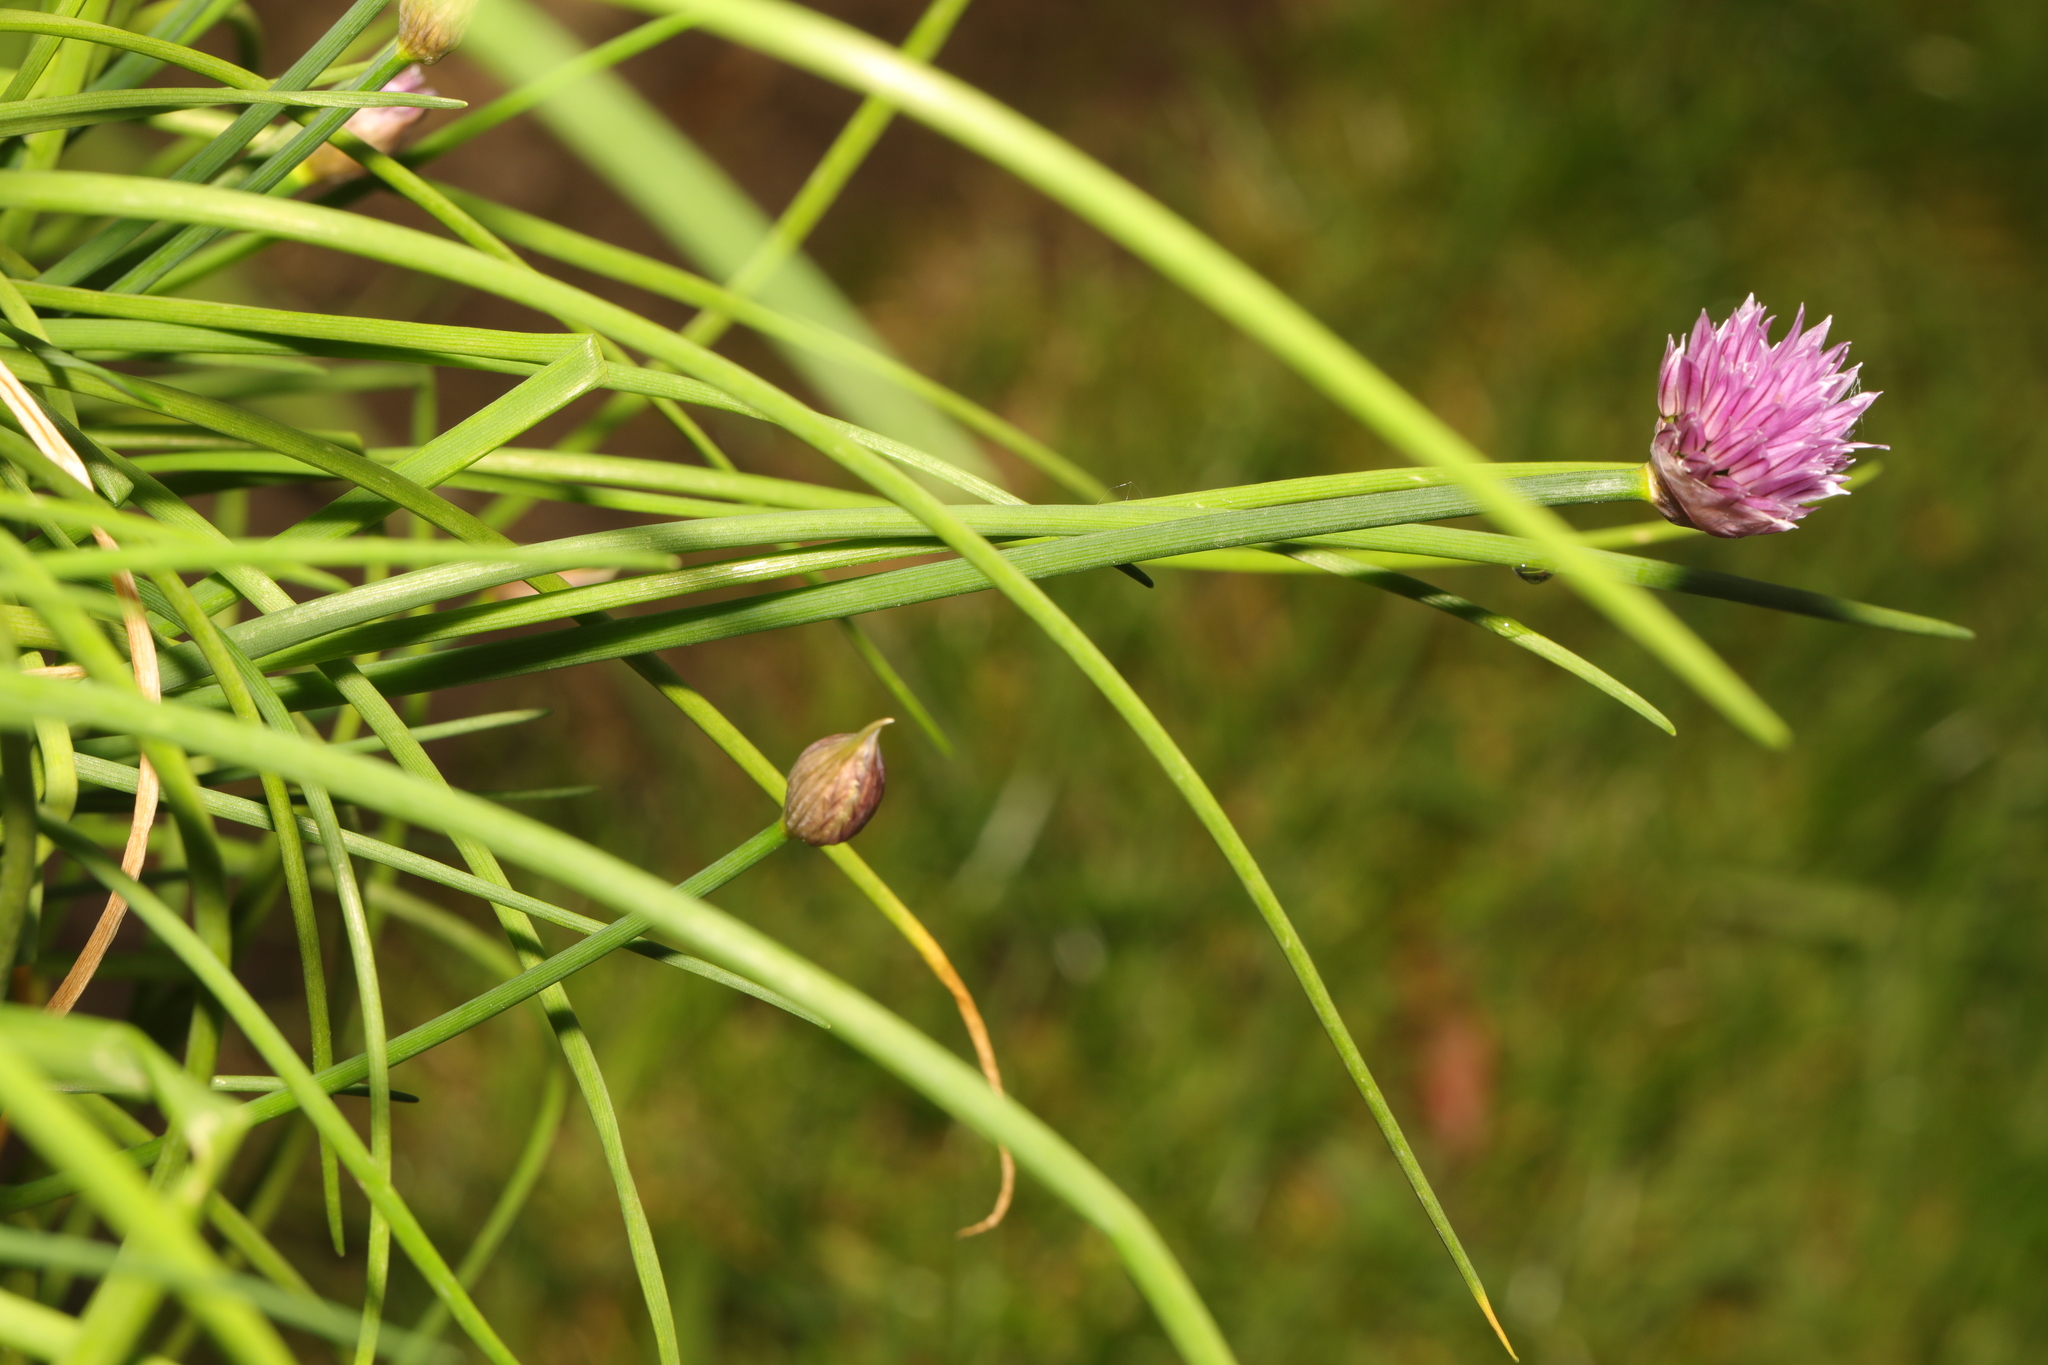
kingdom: Plantae
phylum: Tracheophyta
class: Liliopsida
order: Asparagales
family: Amaryllidaceae
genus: Allium
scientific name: Allium schoenoprasum
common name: Chives
